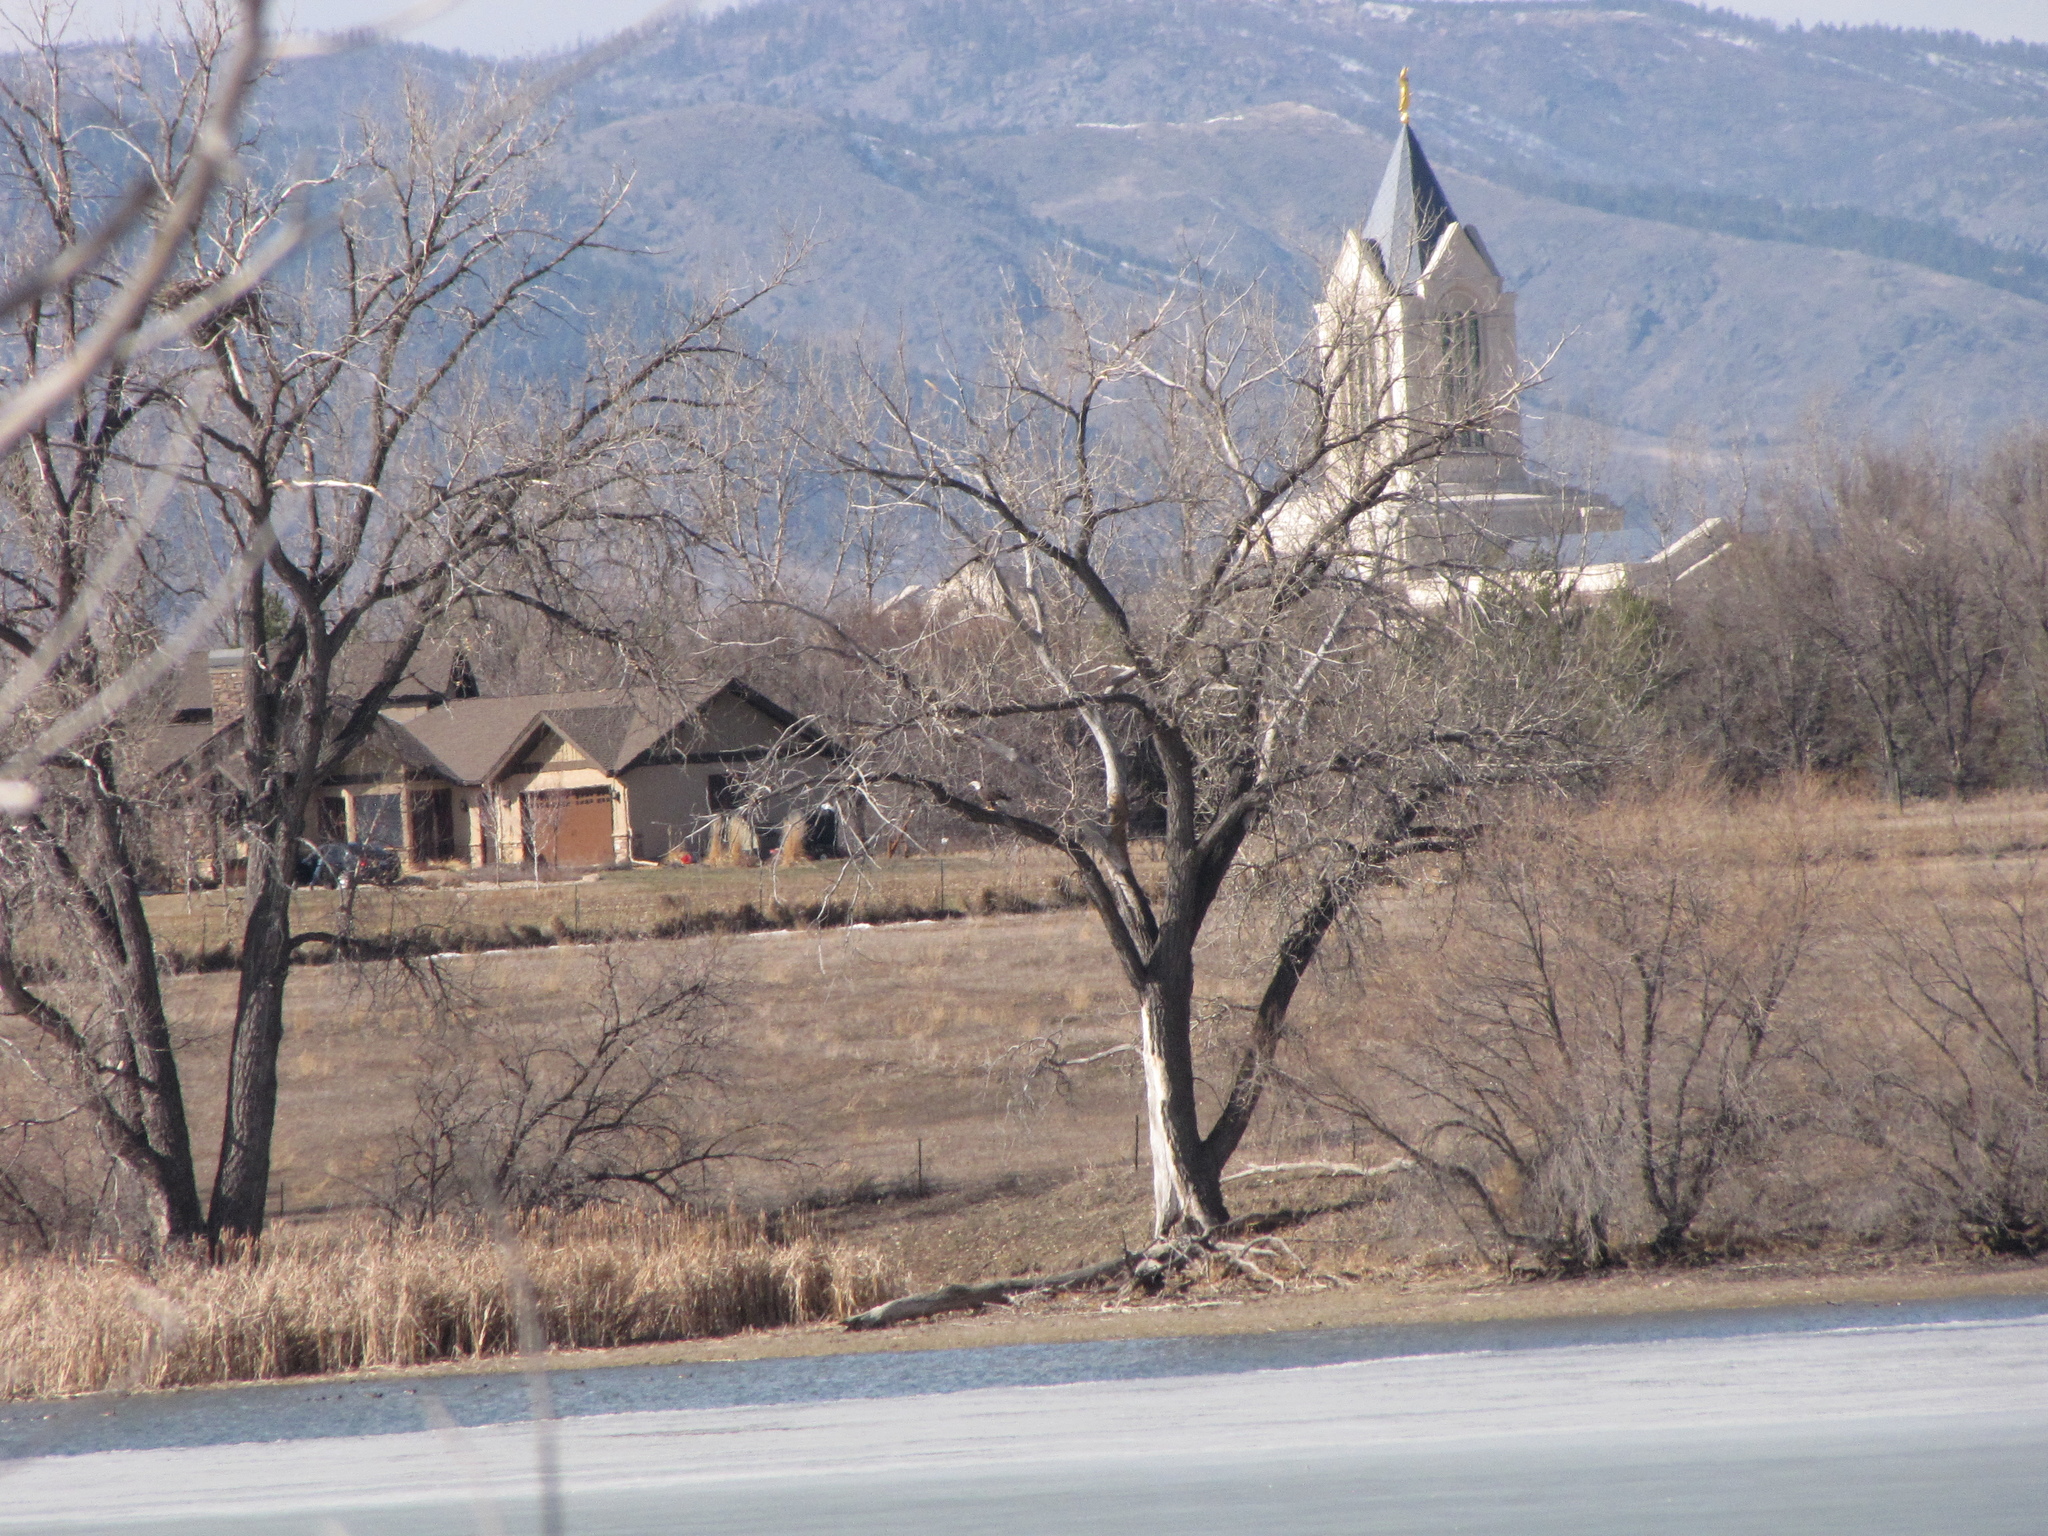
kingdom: Animalia
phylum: Chordata
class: Aves
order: Accipitriformes
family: Accipitridae
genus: Haliaeetus
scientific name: Haliaeetus leucocephalus
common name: Bald eagle
